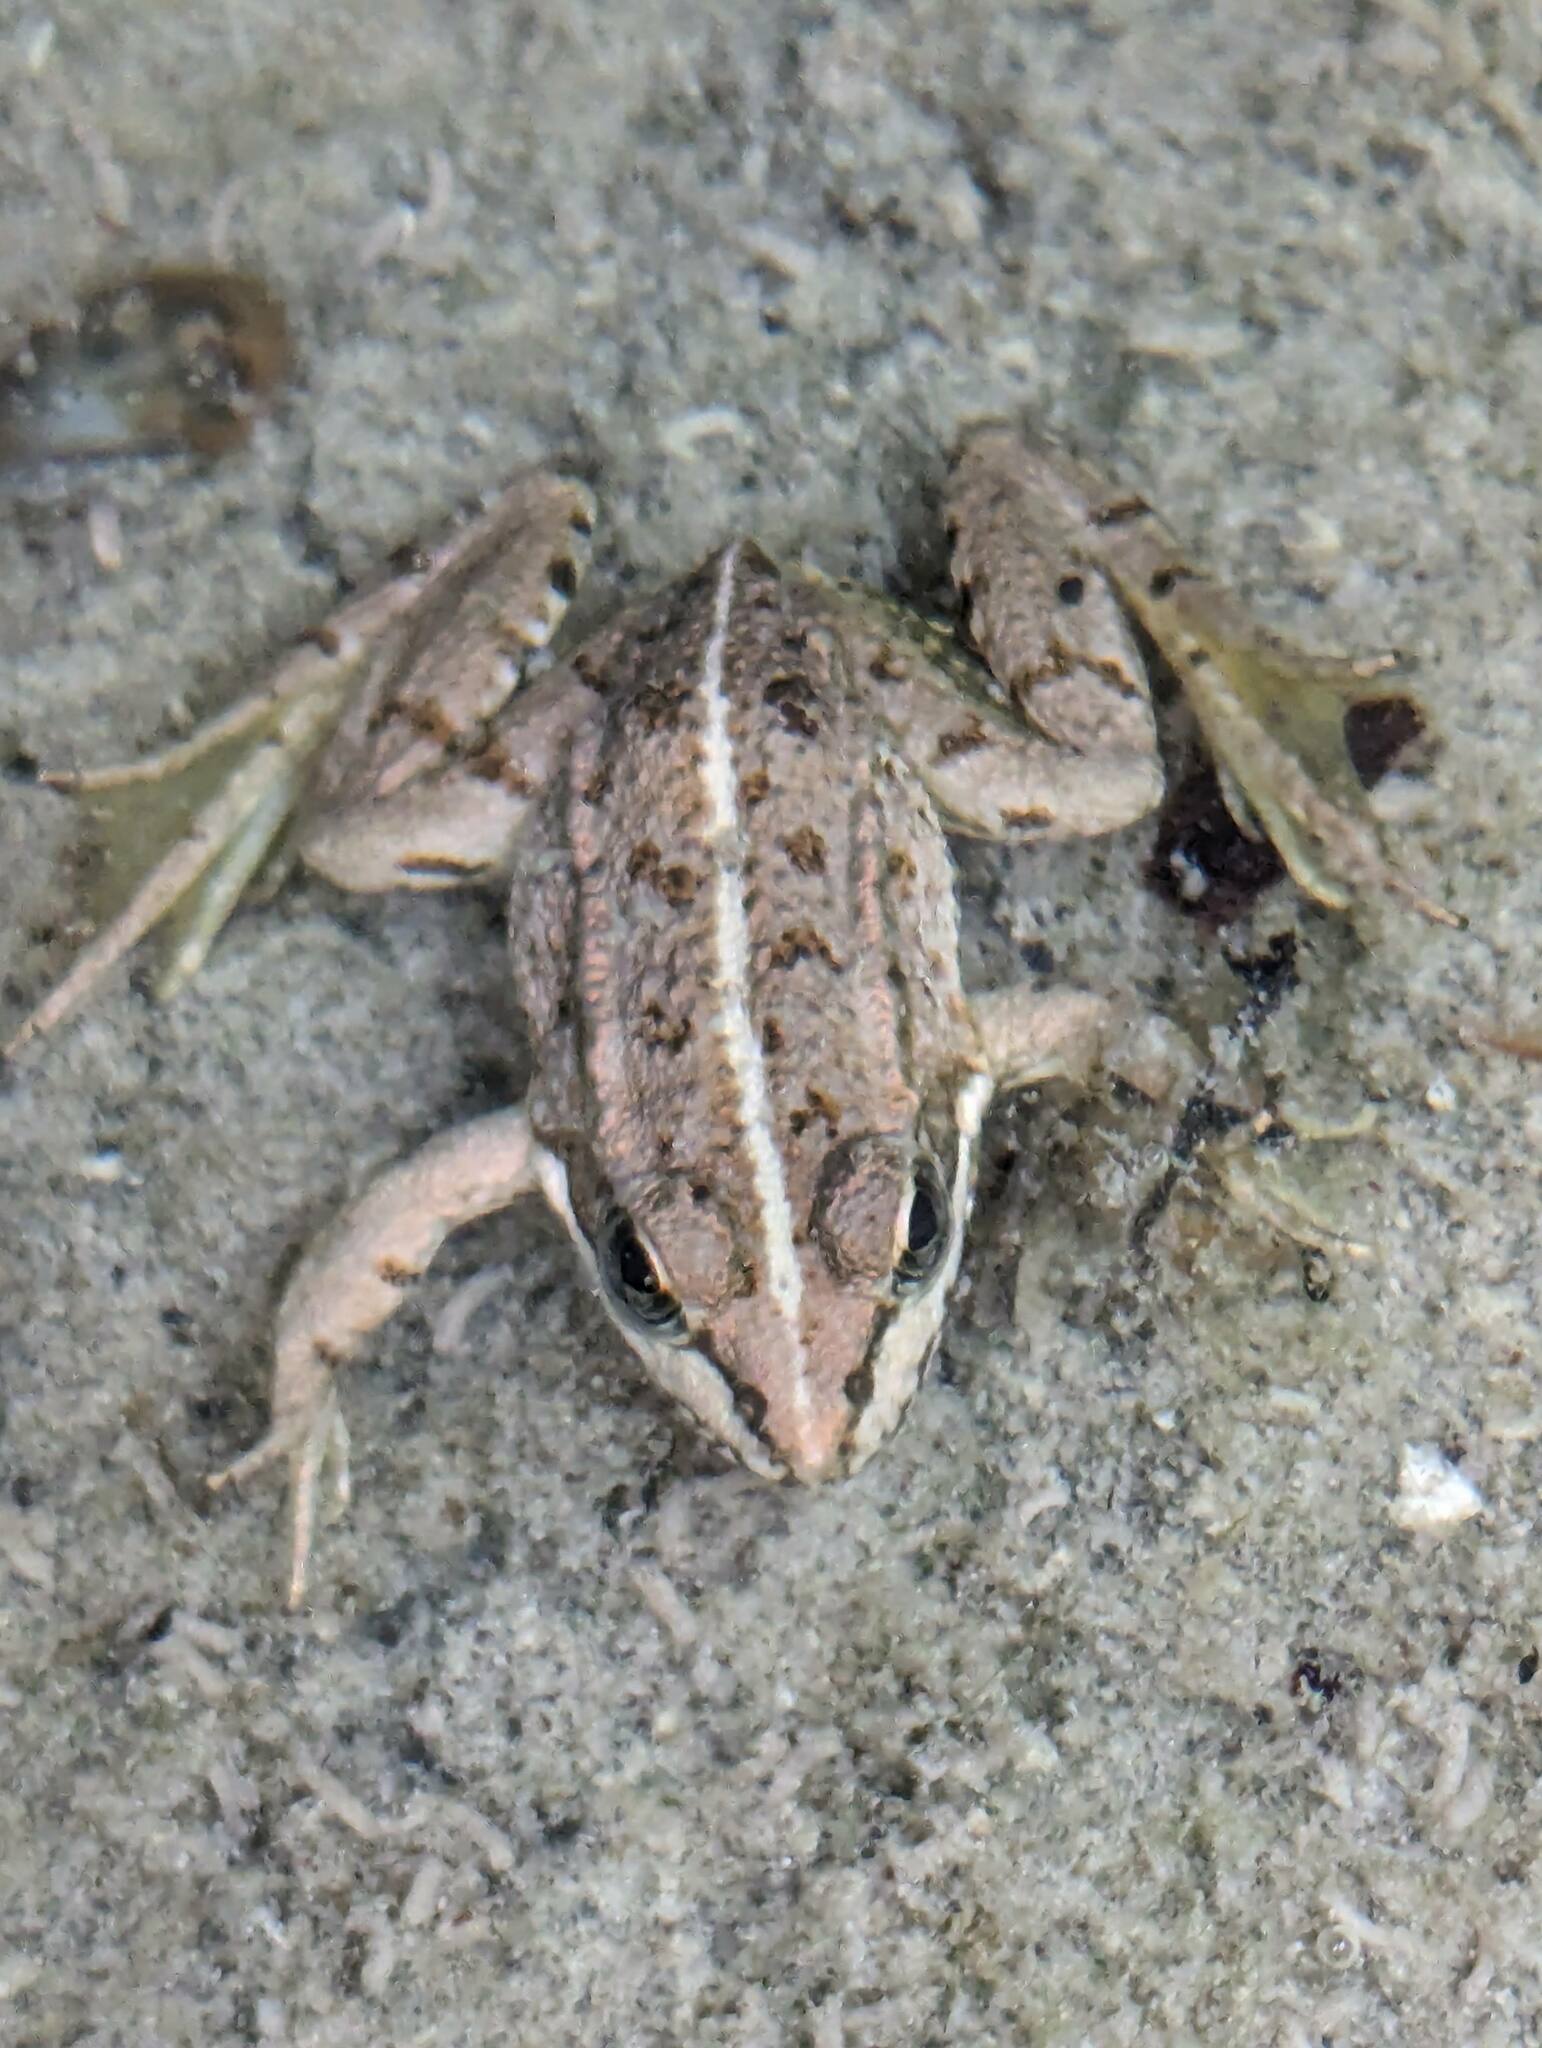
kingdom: Animalia
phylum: Chordata
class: Amphibia
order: Anura
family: Ranidae
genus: Pelophylax
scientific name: Pelophylax perezi
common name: Perez's frog
